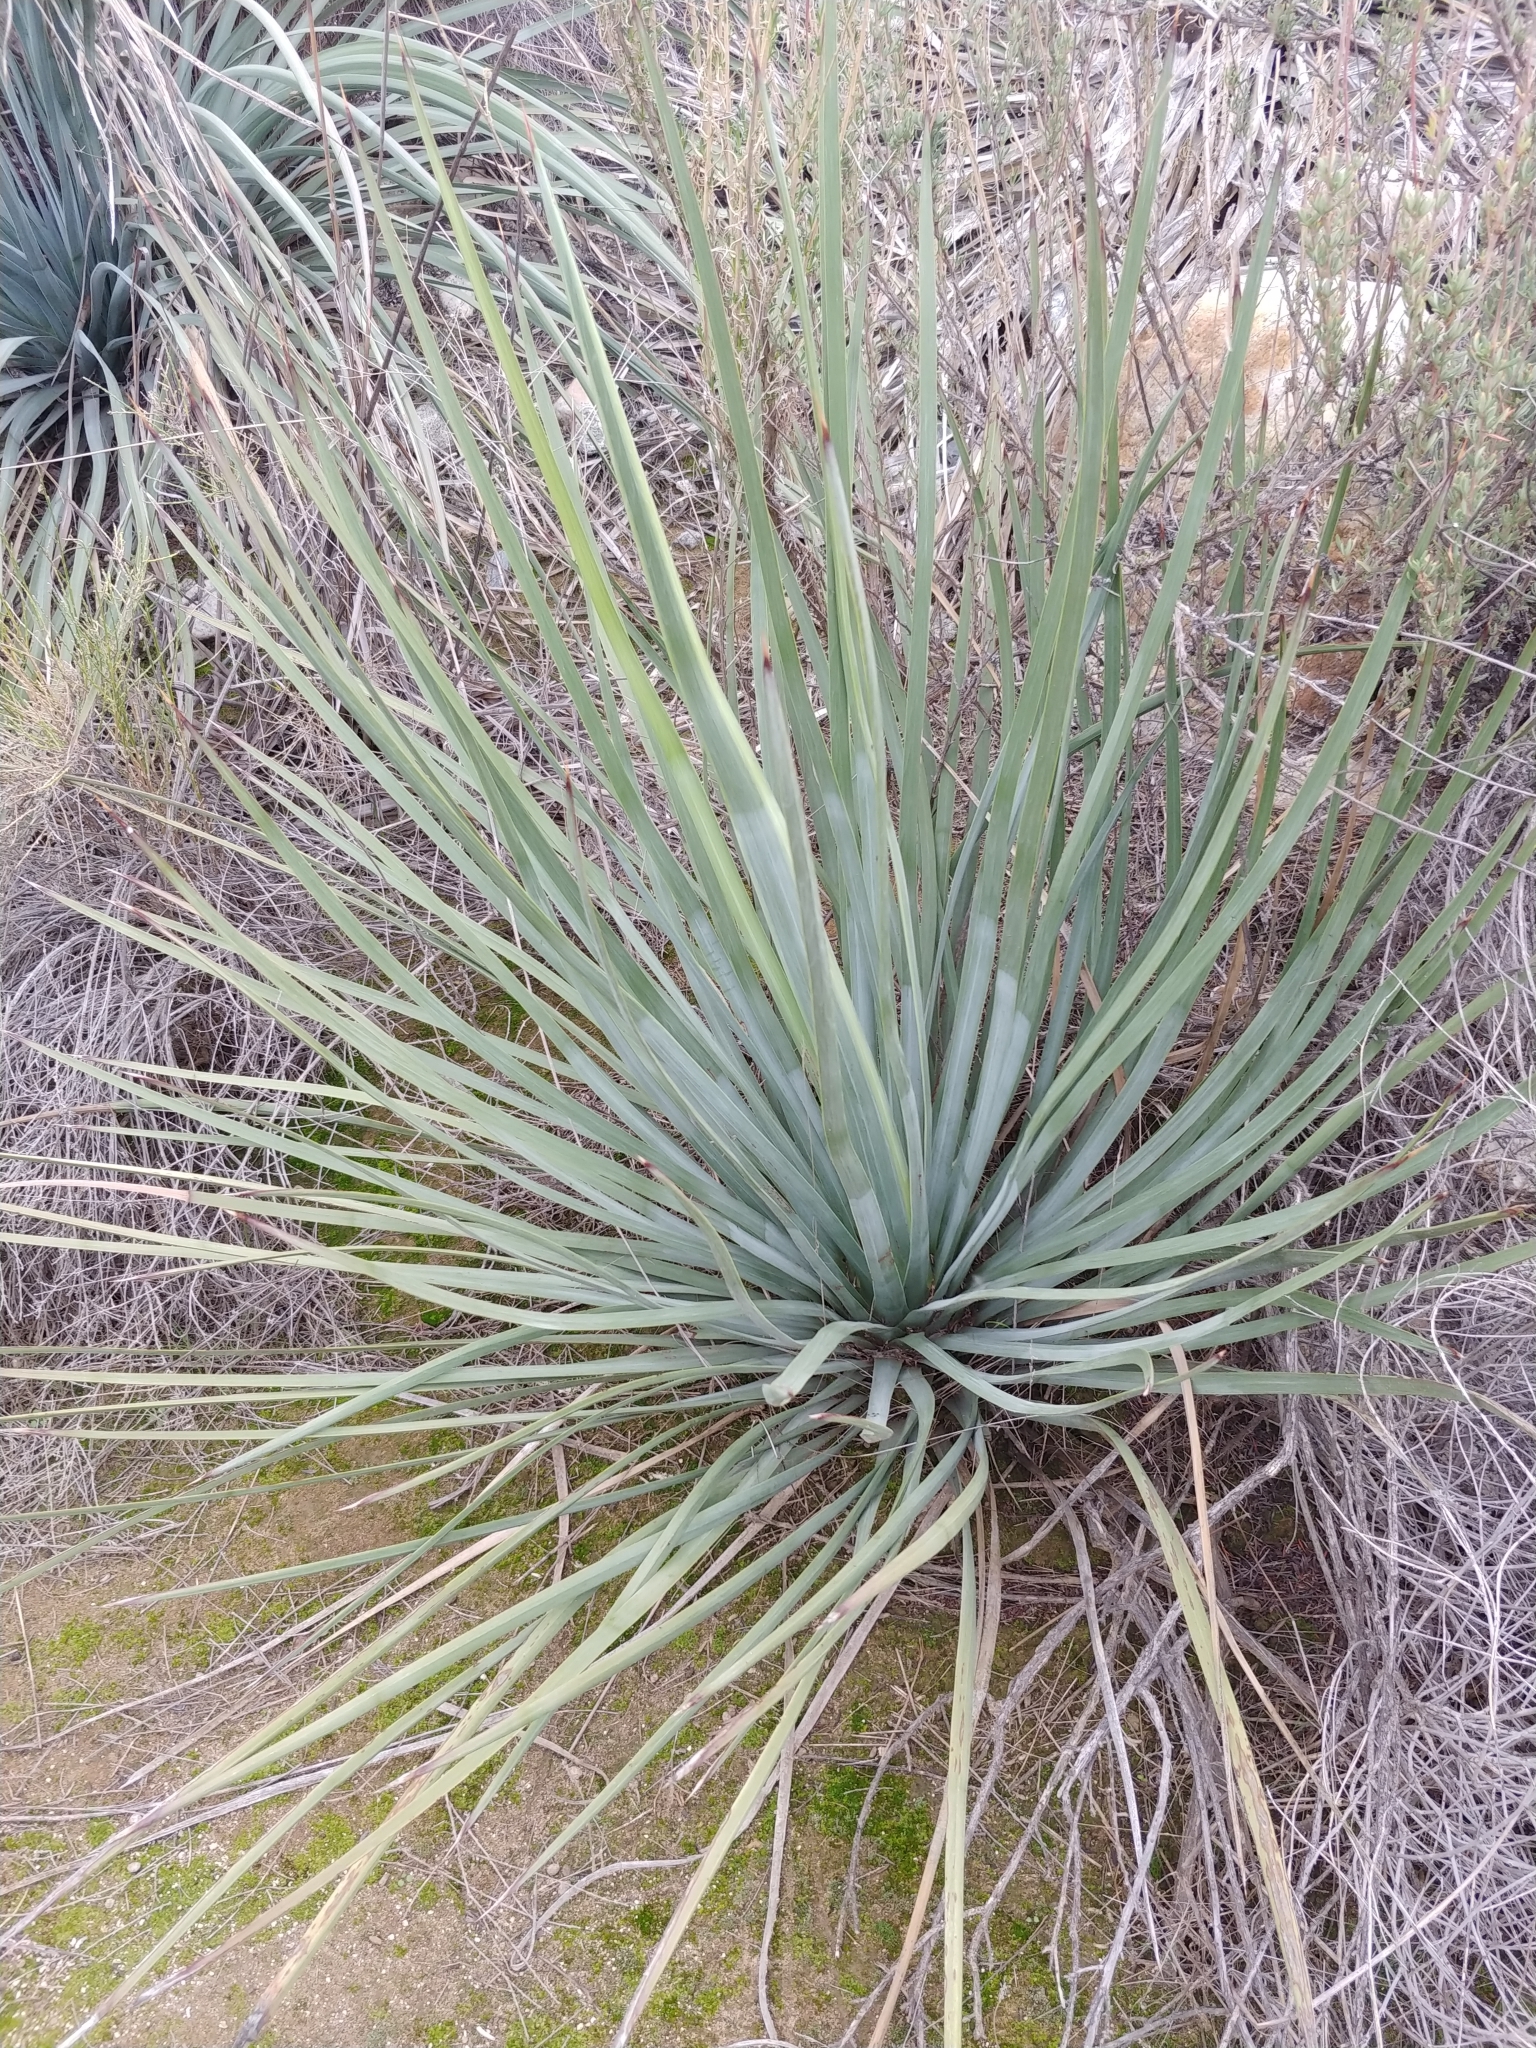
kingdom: Plantae
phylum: Tracheophyta
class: Liliopsida
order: Asparagales
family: Asparagaceae
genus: Hesperoyucca
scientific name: Hesperoyucca whipplei
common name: Our lord's-candle
